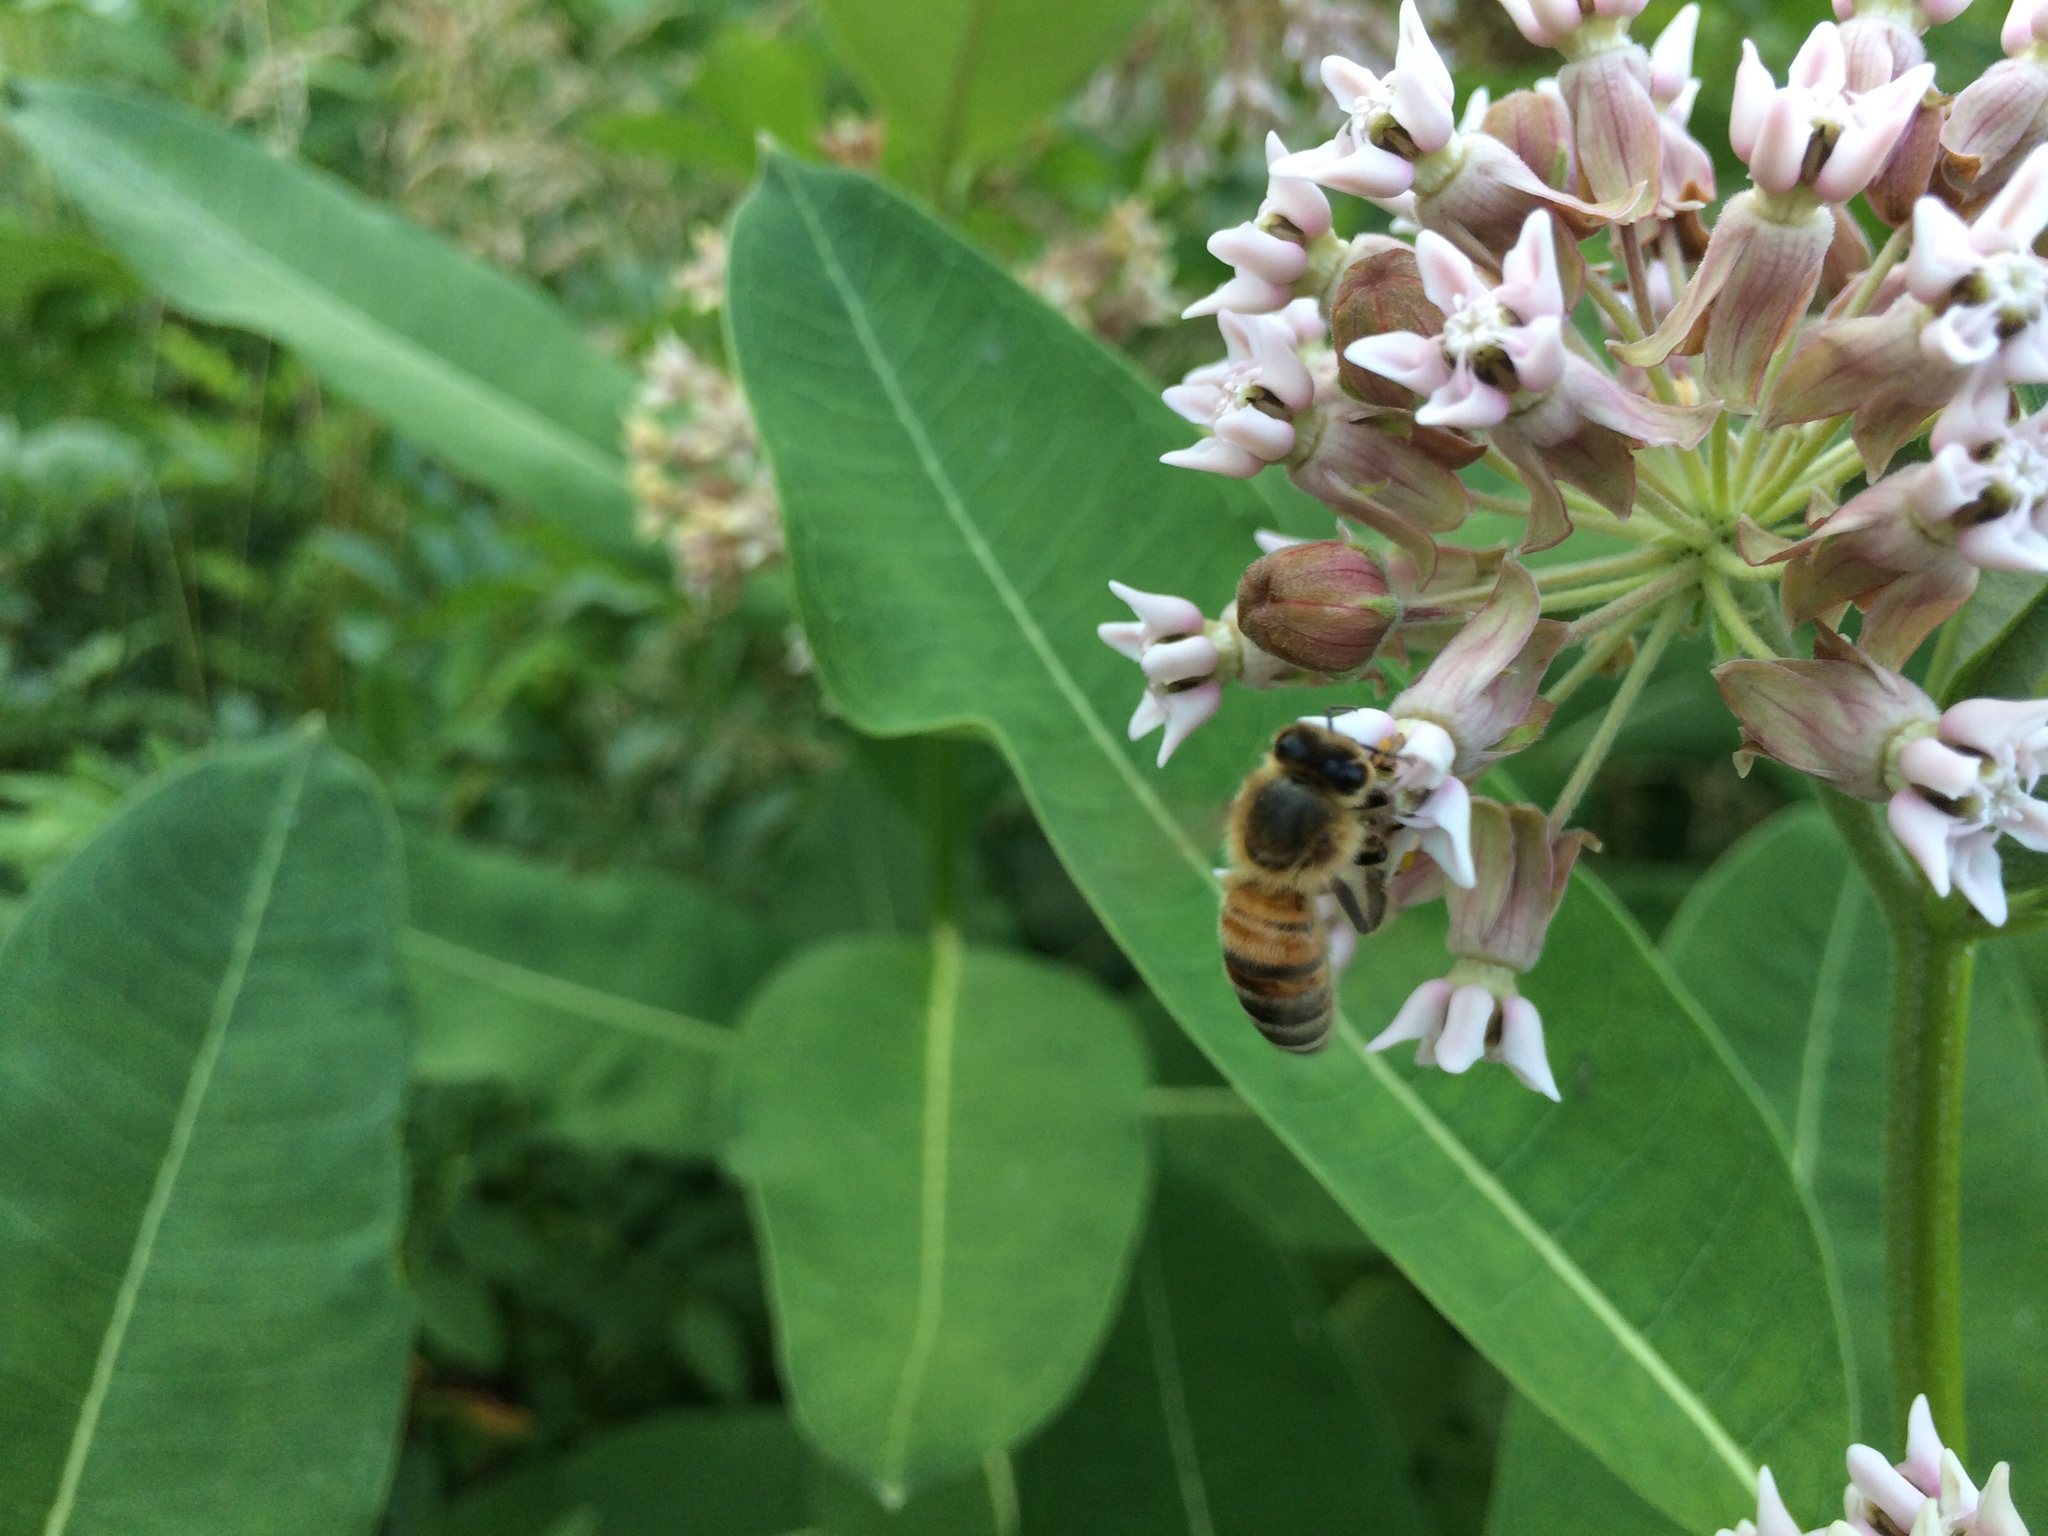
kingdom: Animalia
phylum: Arthropoda
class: Insecta
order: Hymenoptera
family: Apidae
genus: Apis
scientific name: Apis mellifera
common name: Honey bee
